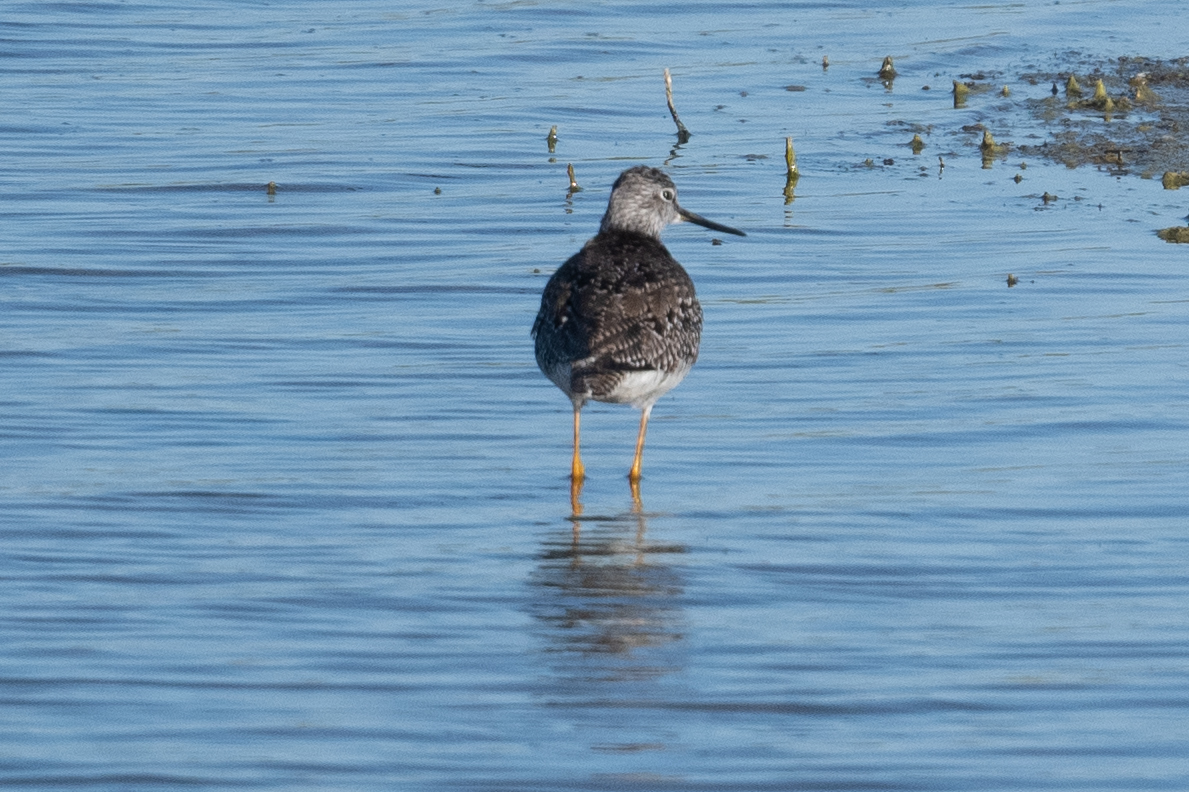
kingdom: Animalia
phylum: Chordata
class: Aves
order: Charadriiformes
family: Scolopacidae
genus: Tringa
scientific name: Tringa melanoleuca
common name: Greater yellowlegs
